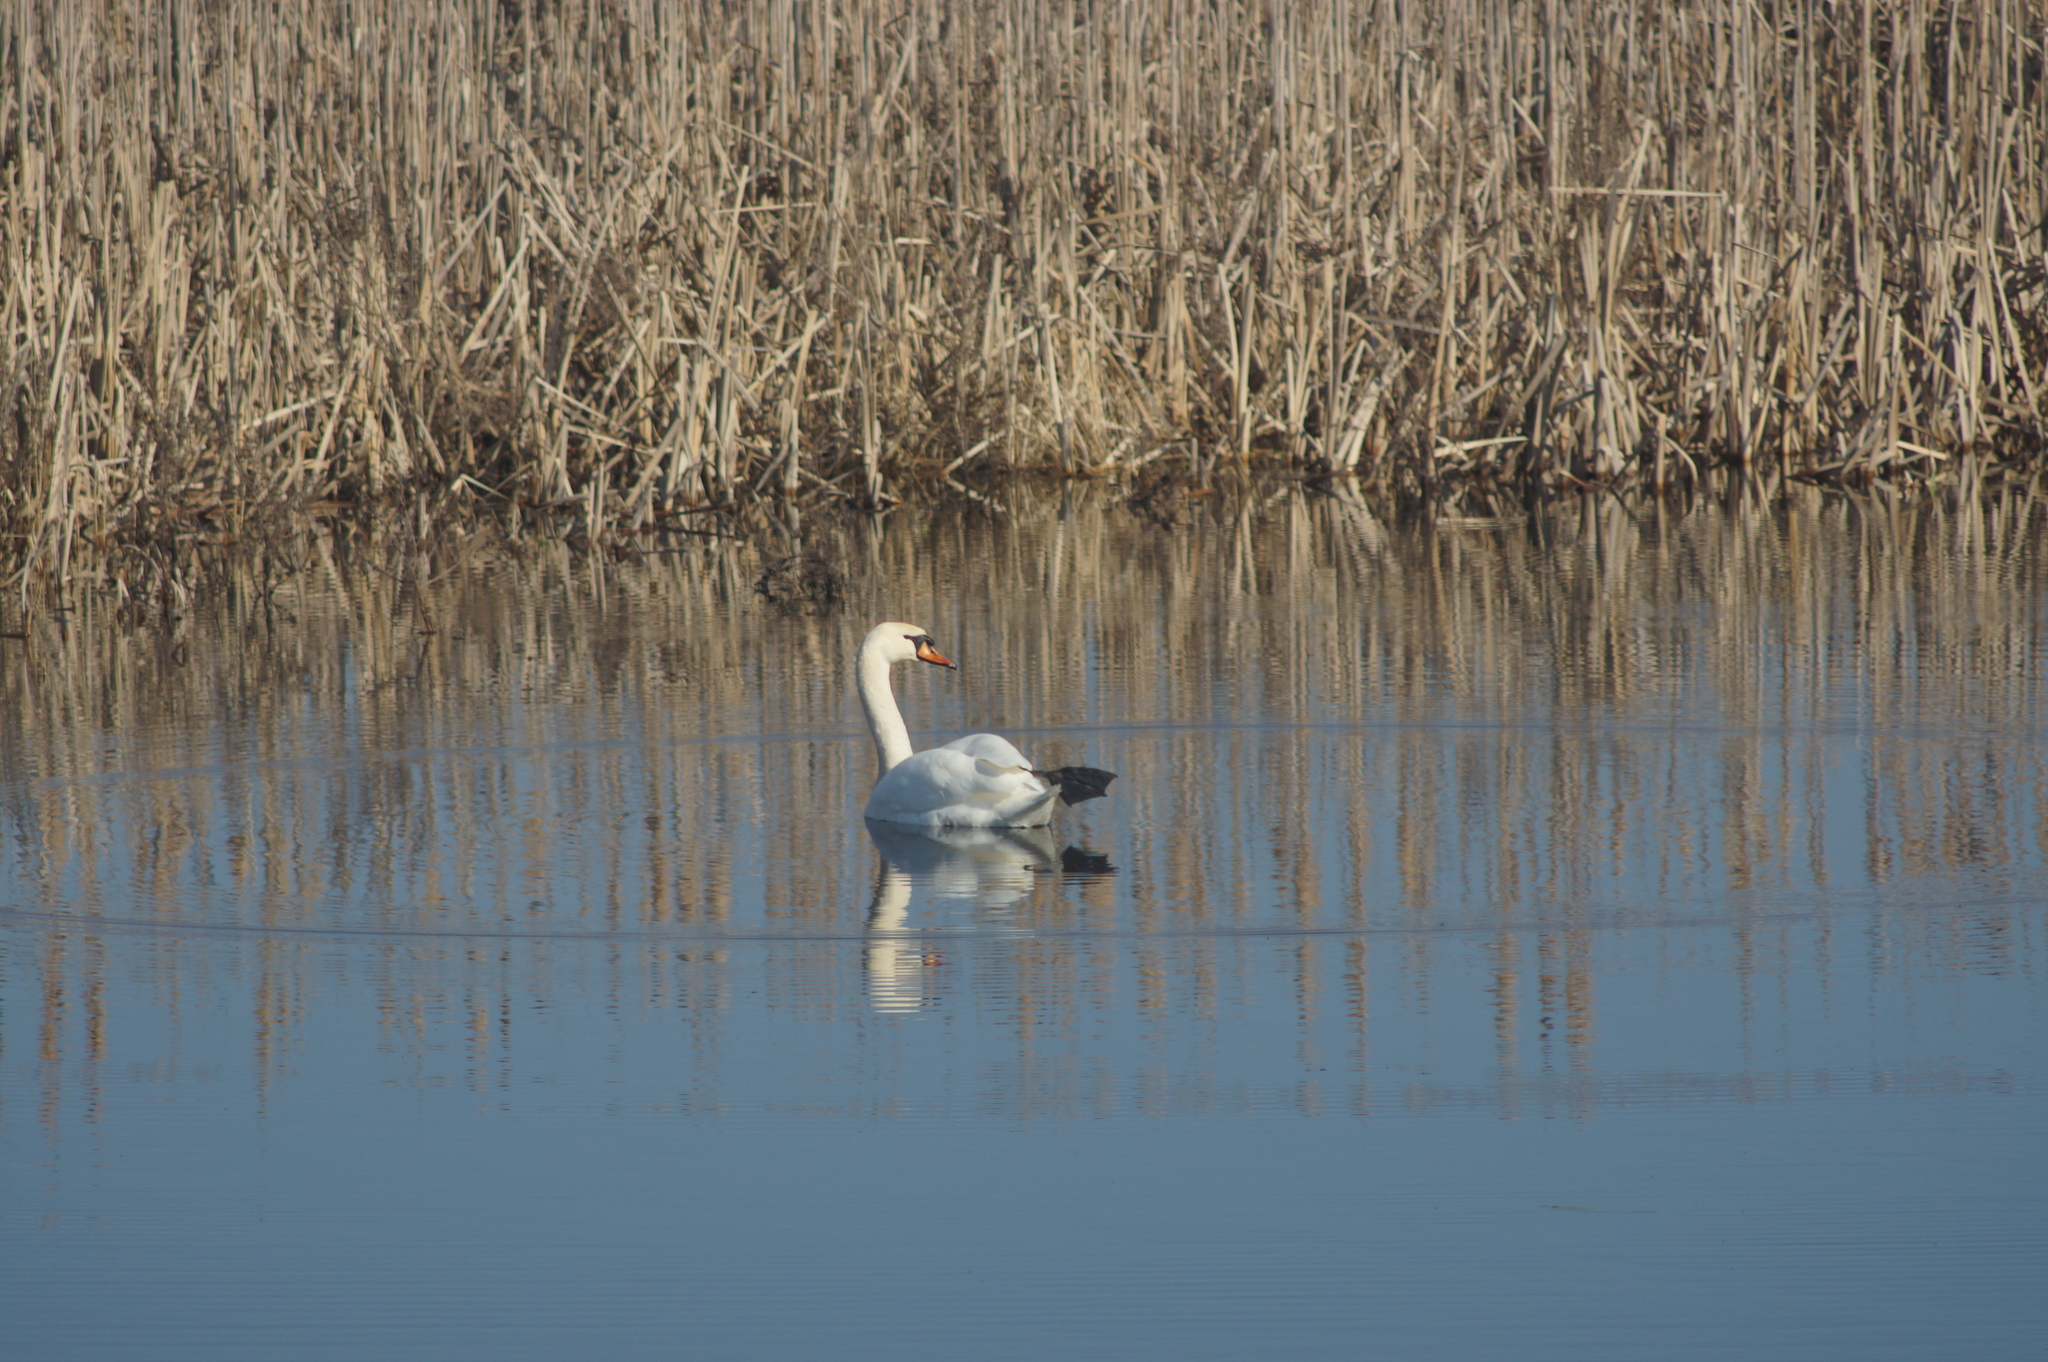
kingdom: Animalia
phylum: Chordata
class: Aves
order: Anseriformes
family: Anatidae
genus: Cygnus
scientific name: Cygnus olor
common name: Mute swan
